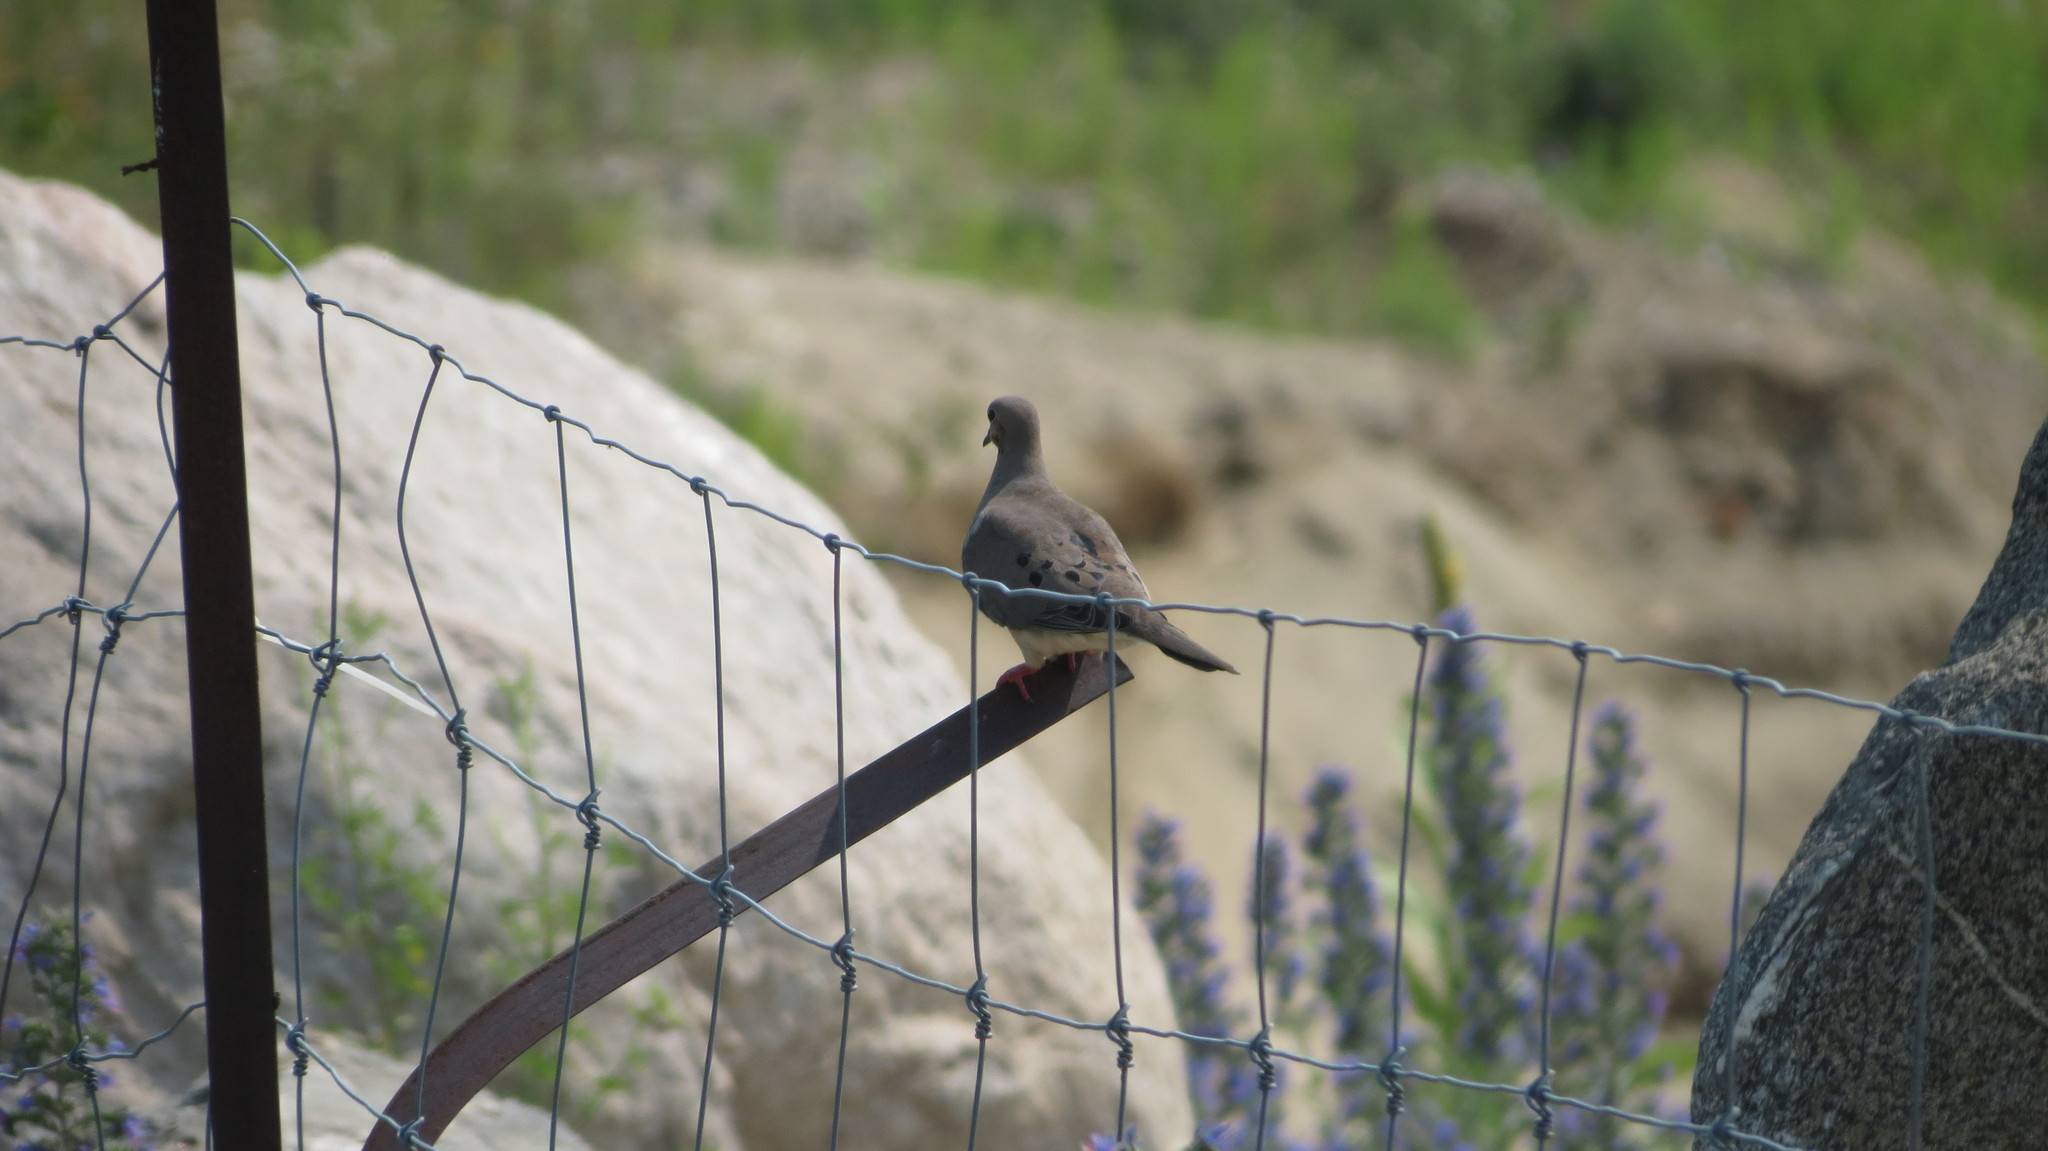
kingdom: Animalia
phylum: Chordata
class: Aves
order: Columbiformes
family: Columbidae
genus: Zenaida
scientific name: Zenaida macroura
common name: Mourning dove
